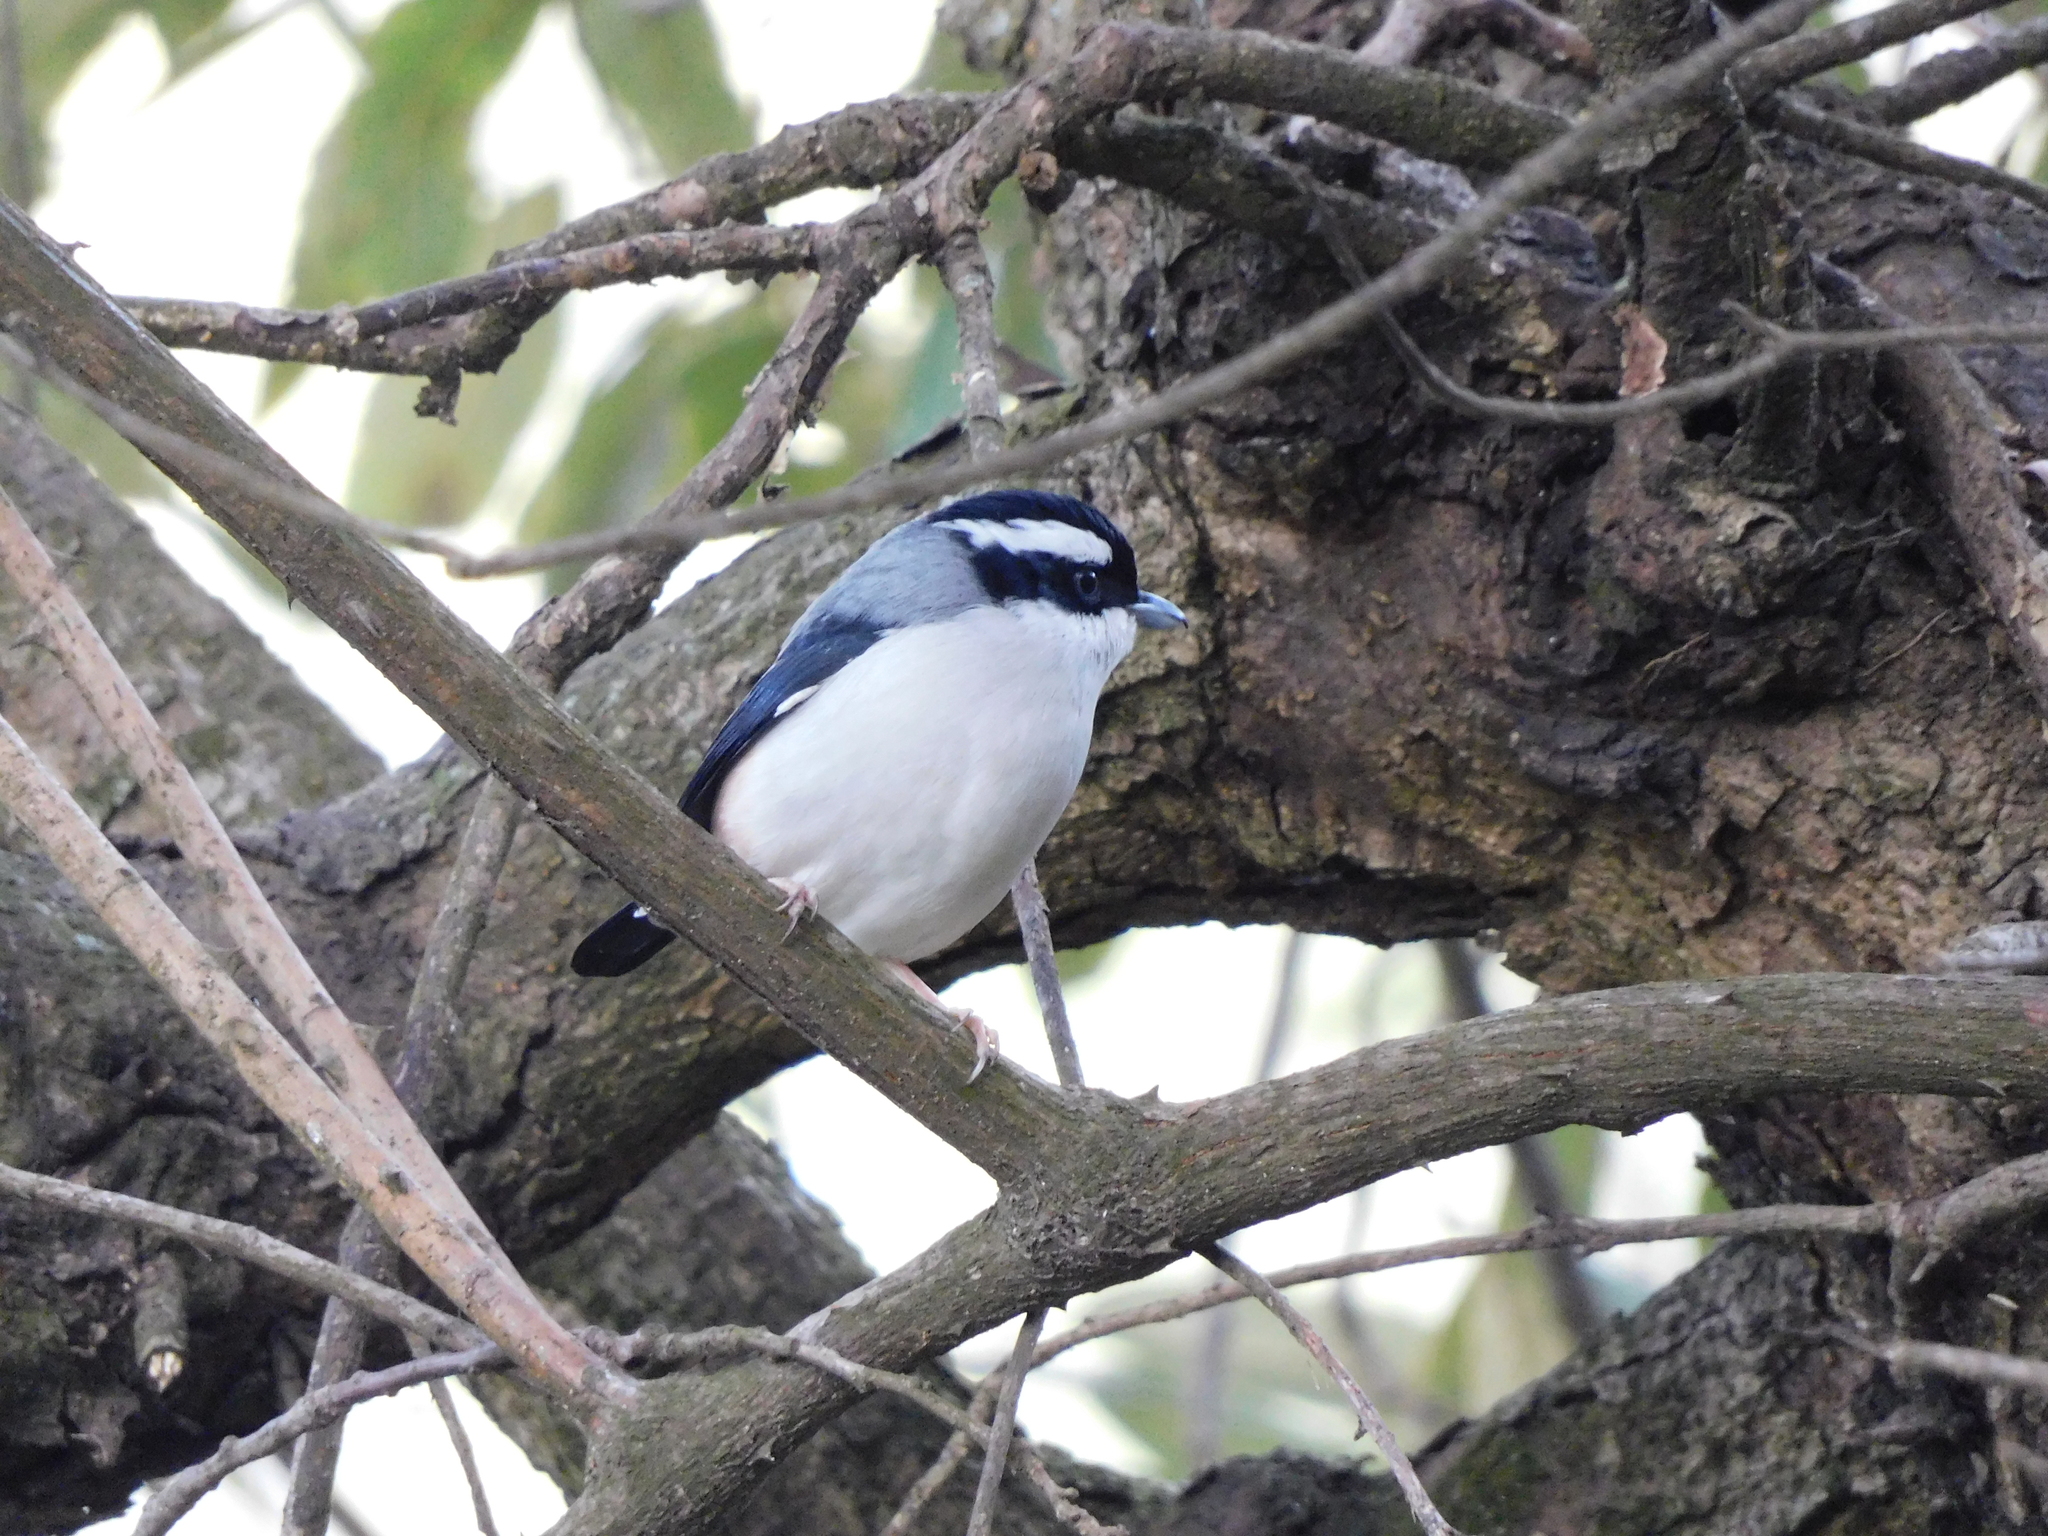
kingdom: Animalia
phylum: Chordata
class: Aves
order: Passeriformes
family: Vireonidae
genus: Pteruthius
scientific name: Pteruthius aeralatus
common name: Blyth's shrike-babbler
